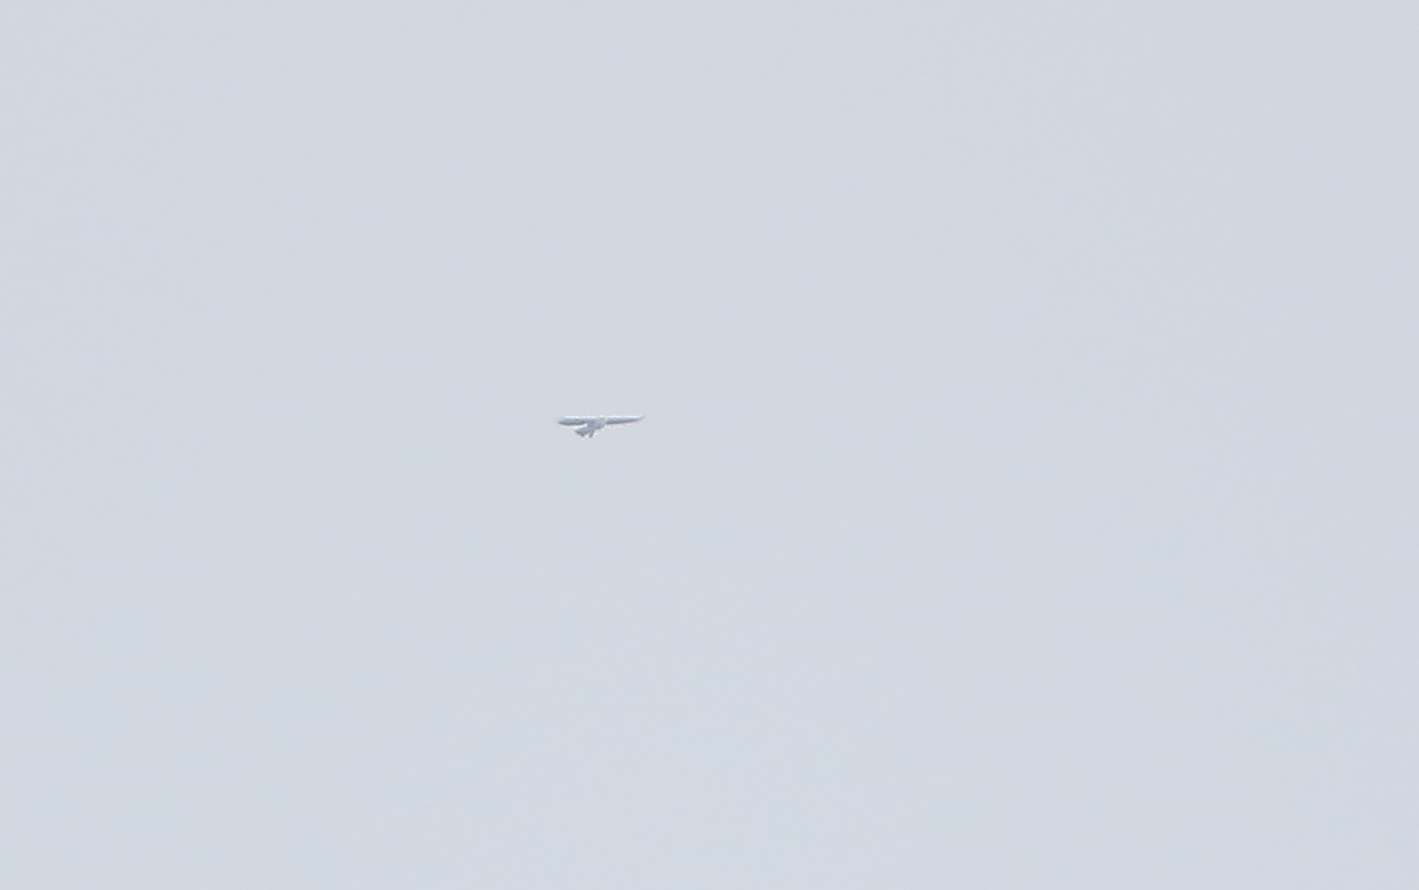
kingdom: Animalia
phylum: Chordata
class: Aves
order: Accipitriformes
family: Accipitridae
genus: Lophotriorchis
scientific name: Lophotriorchis kienerii
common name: Rufous-bellied eagle
